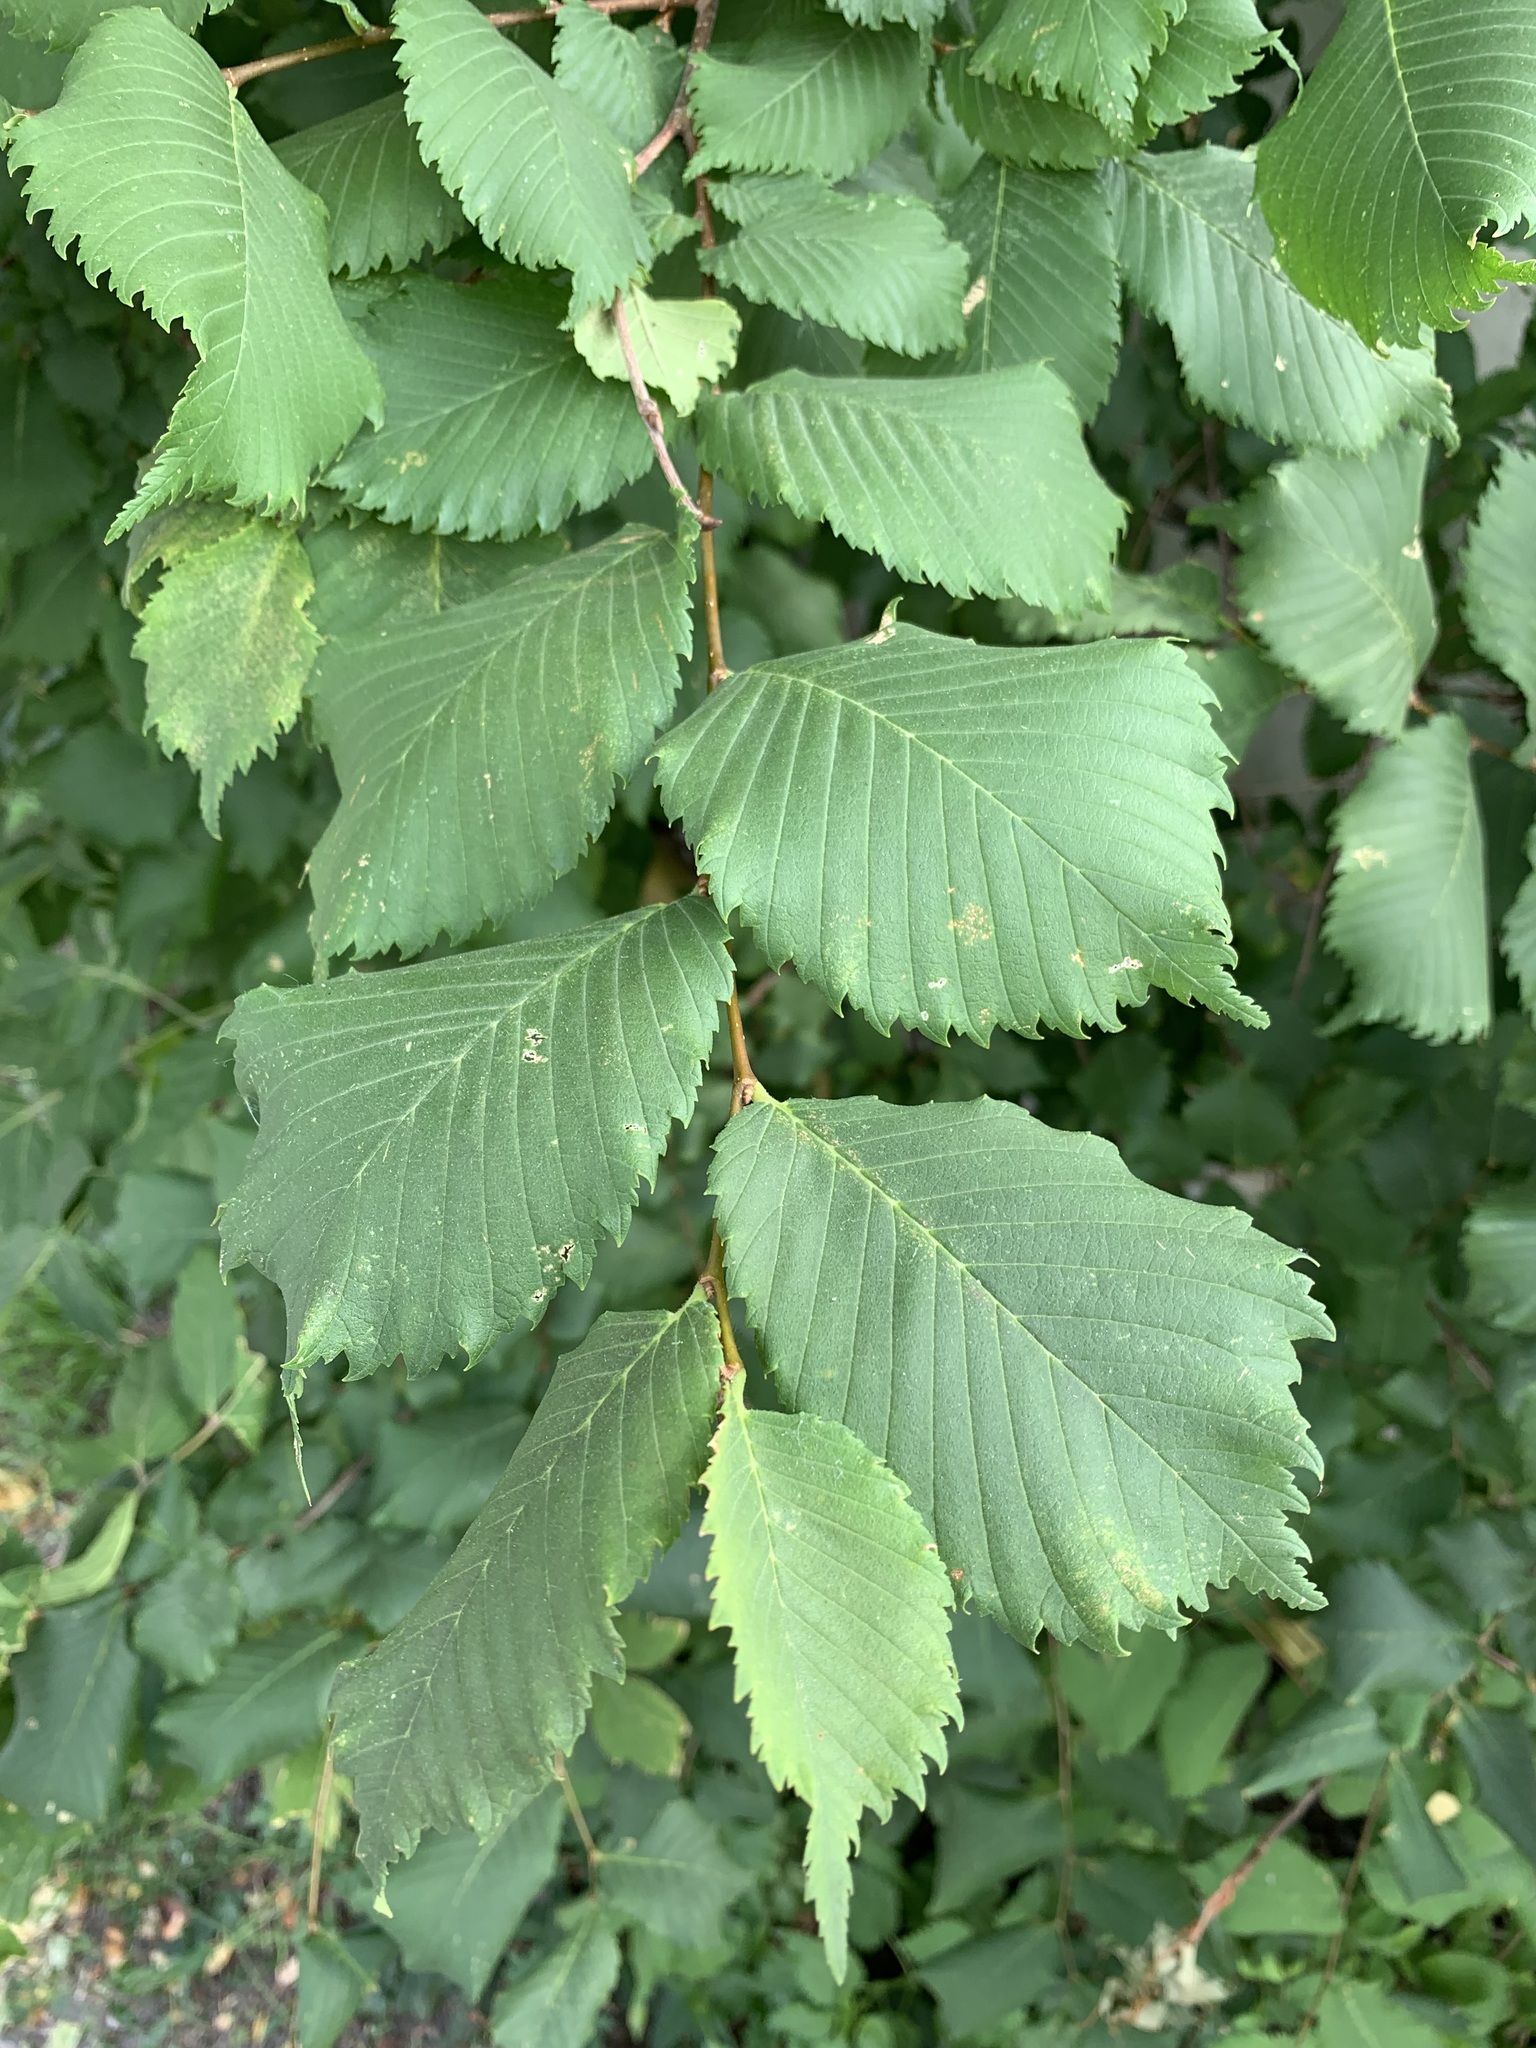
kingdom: Plantae
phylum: Tracheophyta
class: Magnoliopsida
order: Rosales
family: Ulmaceae
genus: Ulmus
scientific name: Ulmus laevis
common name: European white-elm
